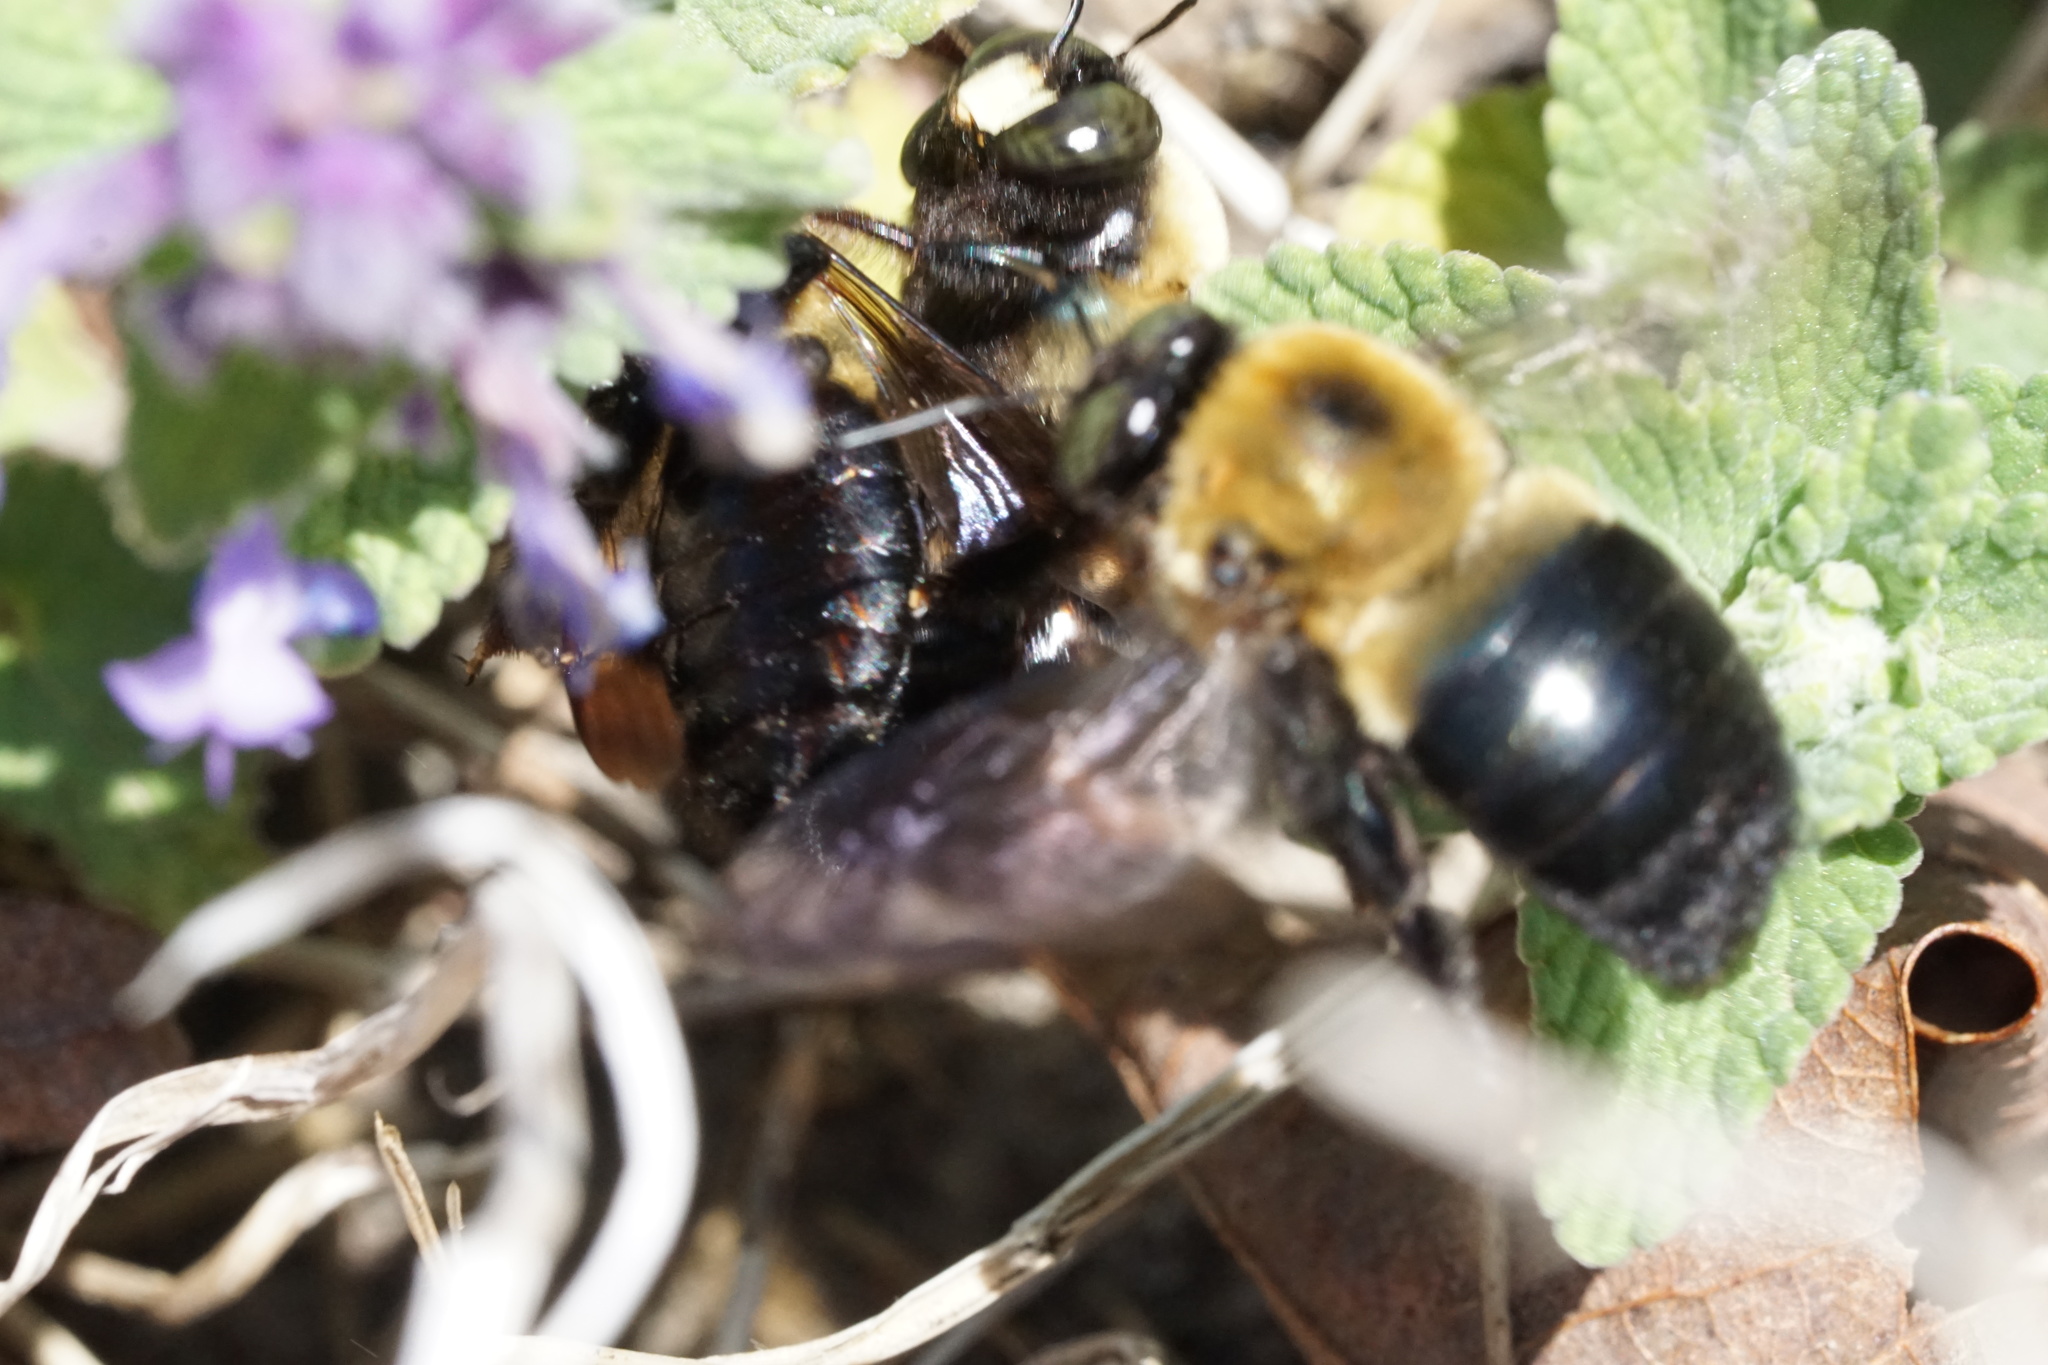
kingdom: Animalia
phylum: Arthropoda
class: Insecta
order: Hymenoptera
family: Apidae
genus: Xylocopa
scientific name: Xylocopa virginica
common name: Carpenter bee
